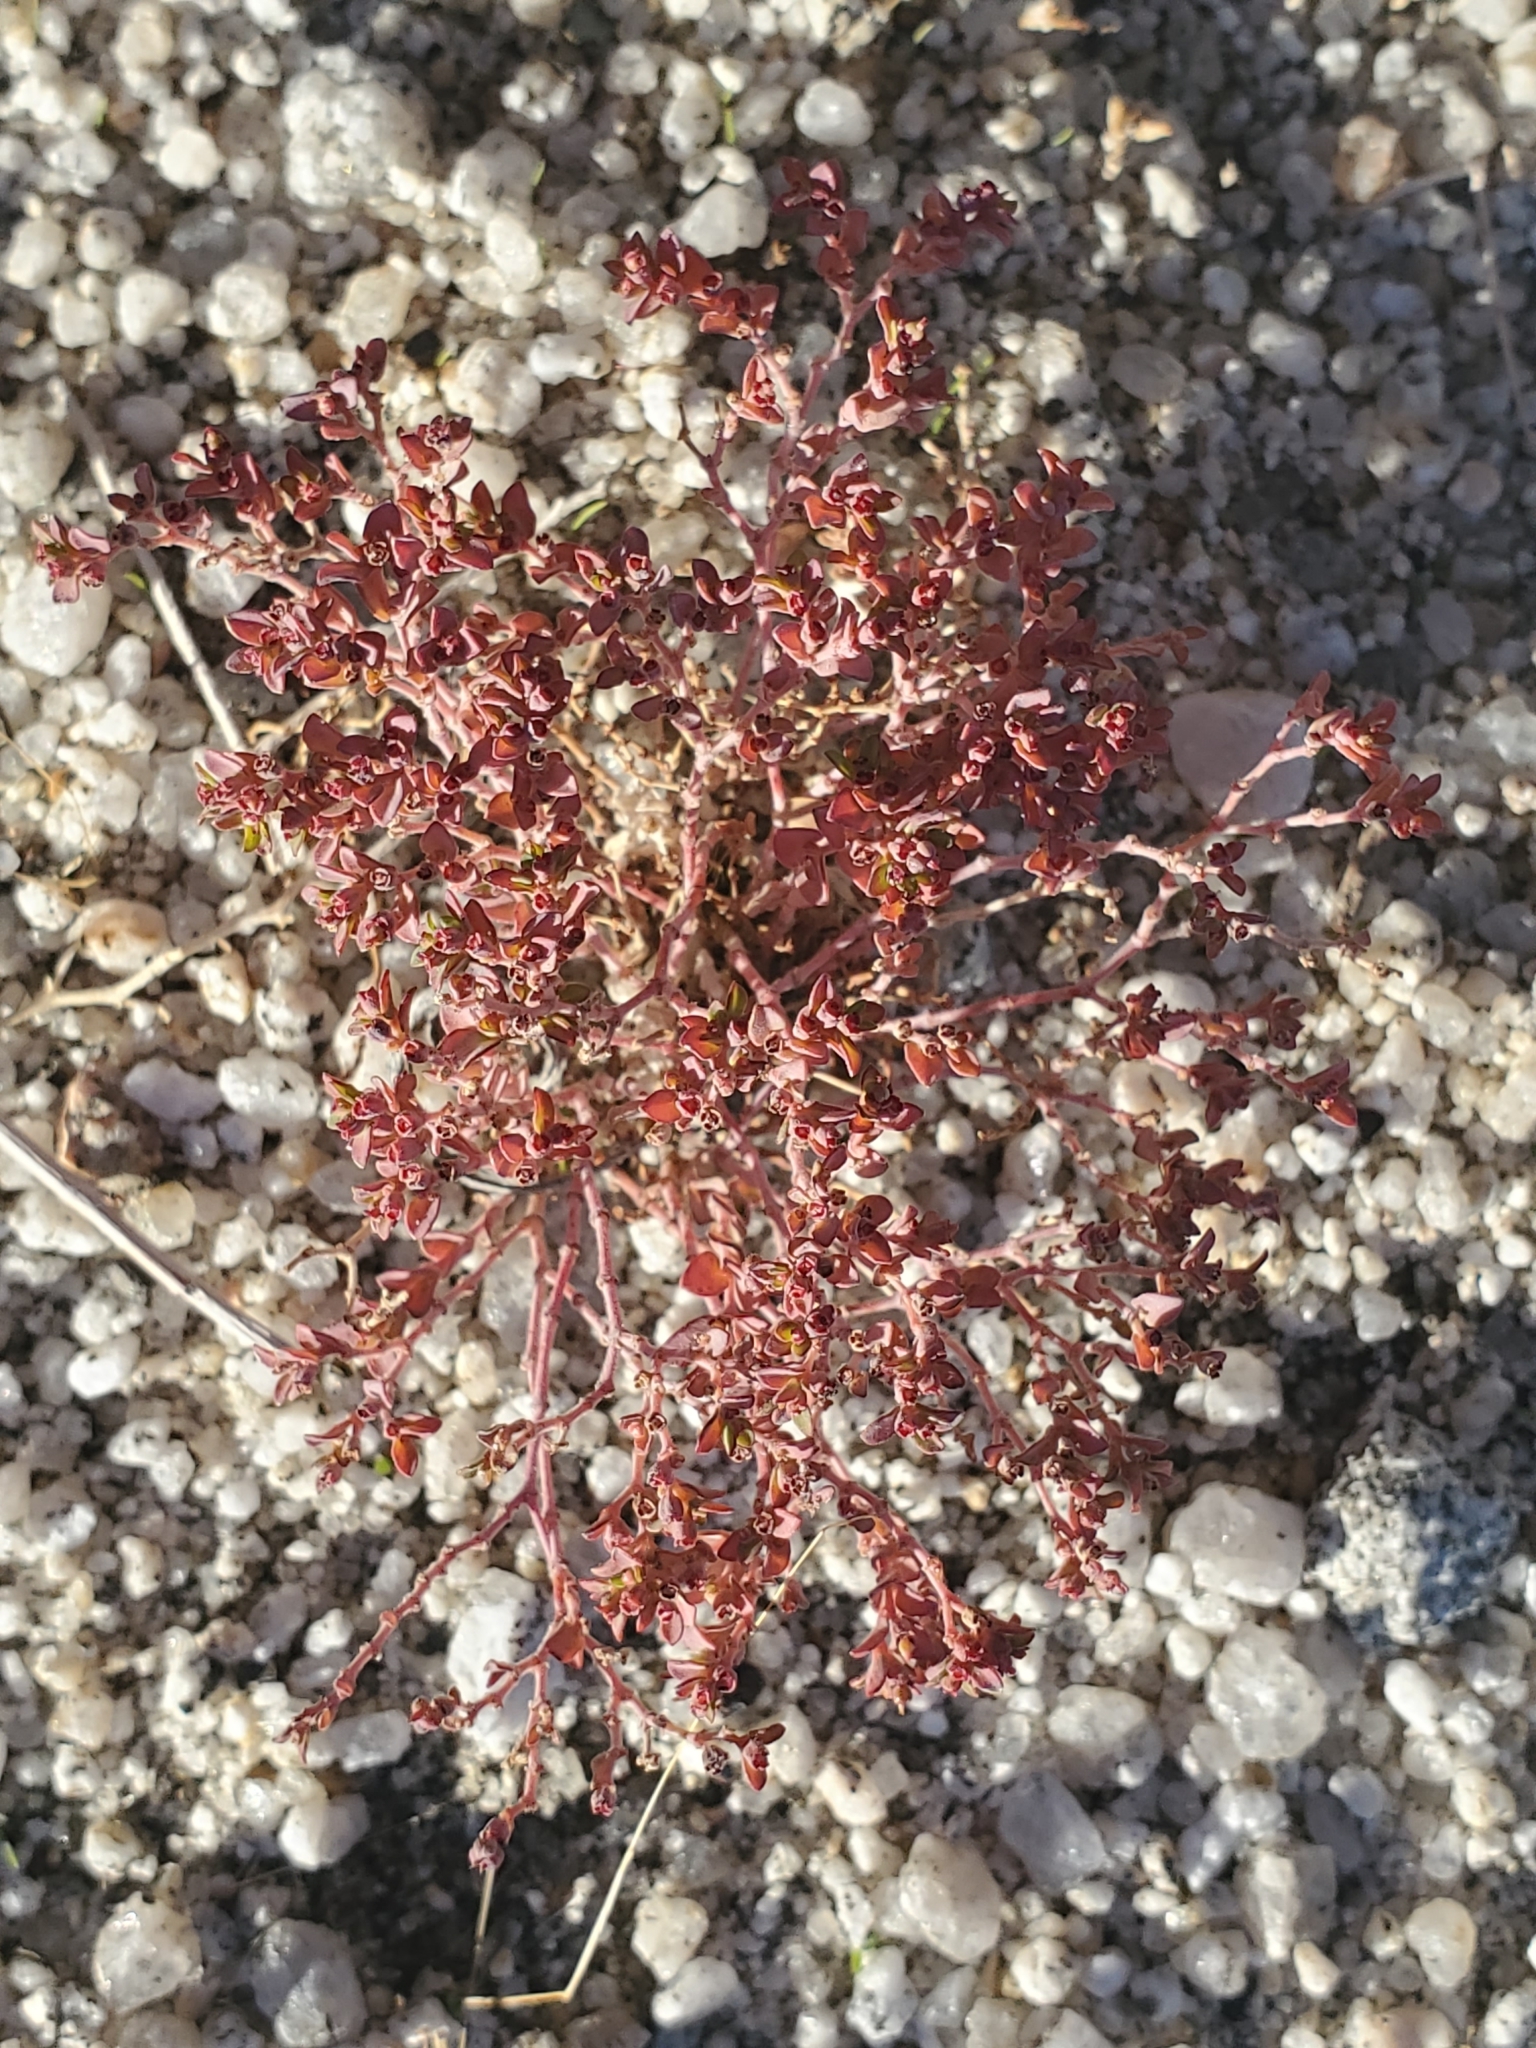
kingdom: Plantae
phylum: Tracheophyta
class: Magnoliopsida
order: Malpighiales
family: Euphorbiaceae
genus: Euphorbia
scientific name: Euphorbia polycarpa
